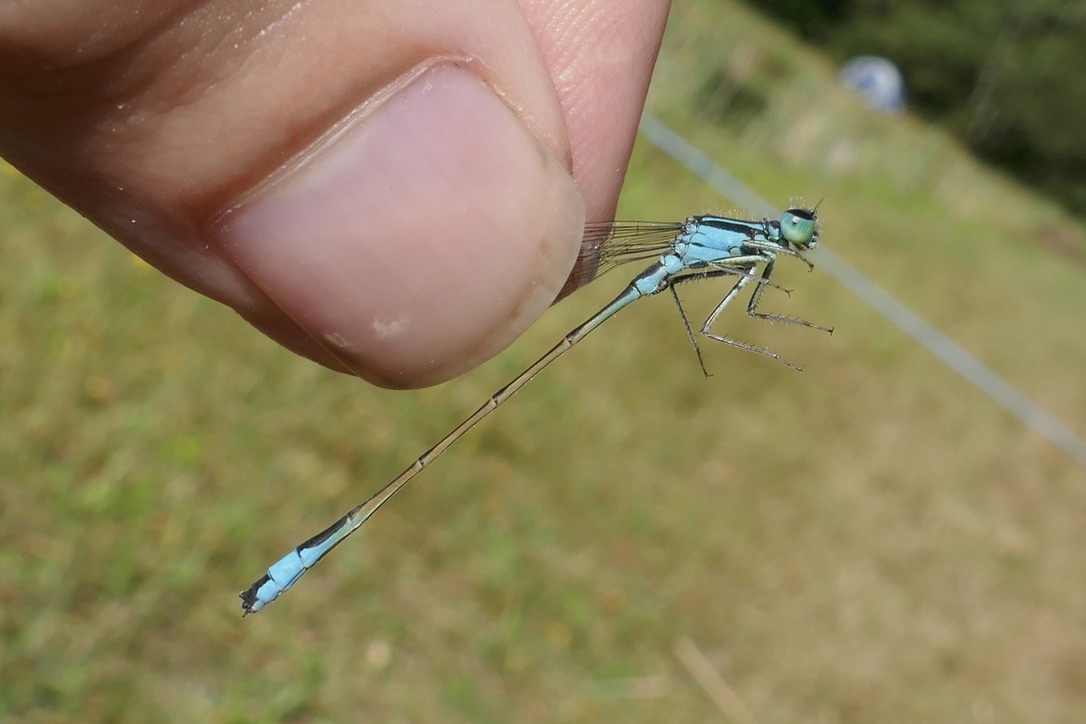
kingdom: Animalia
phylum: Arthropoda
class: Insecta
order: Odonata
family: Coenagrionidae
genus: Ischnura
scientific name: Ischnura elegans
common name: Blue-tailed damselfly
